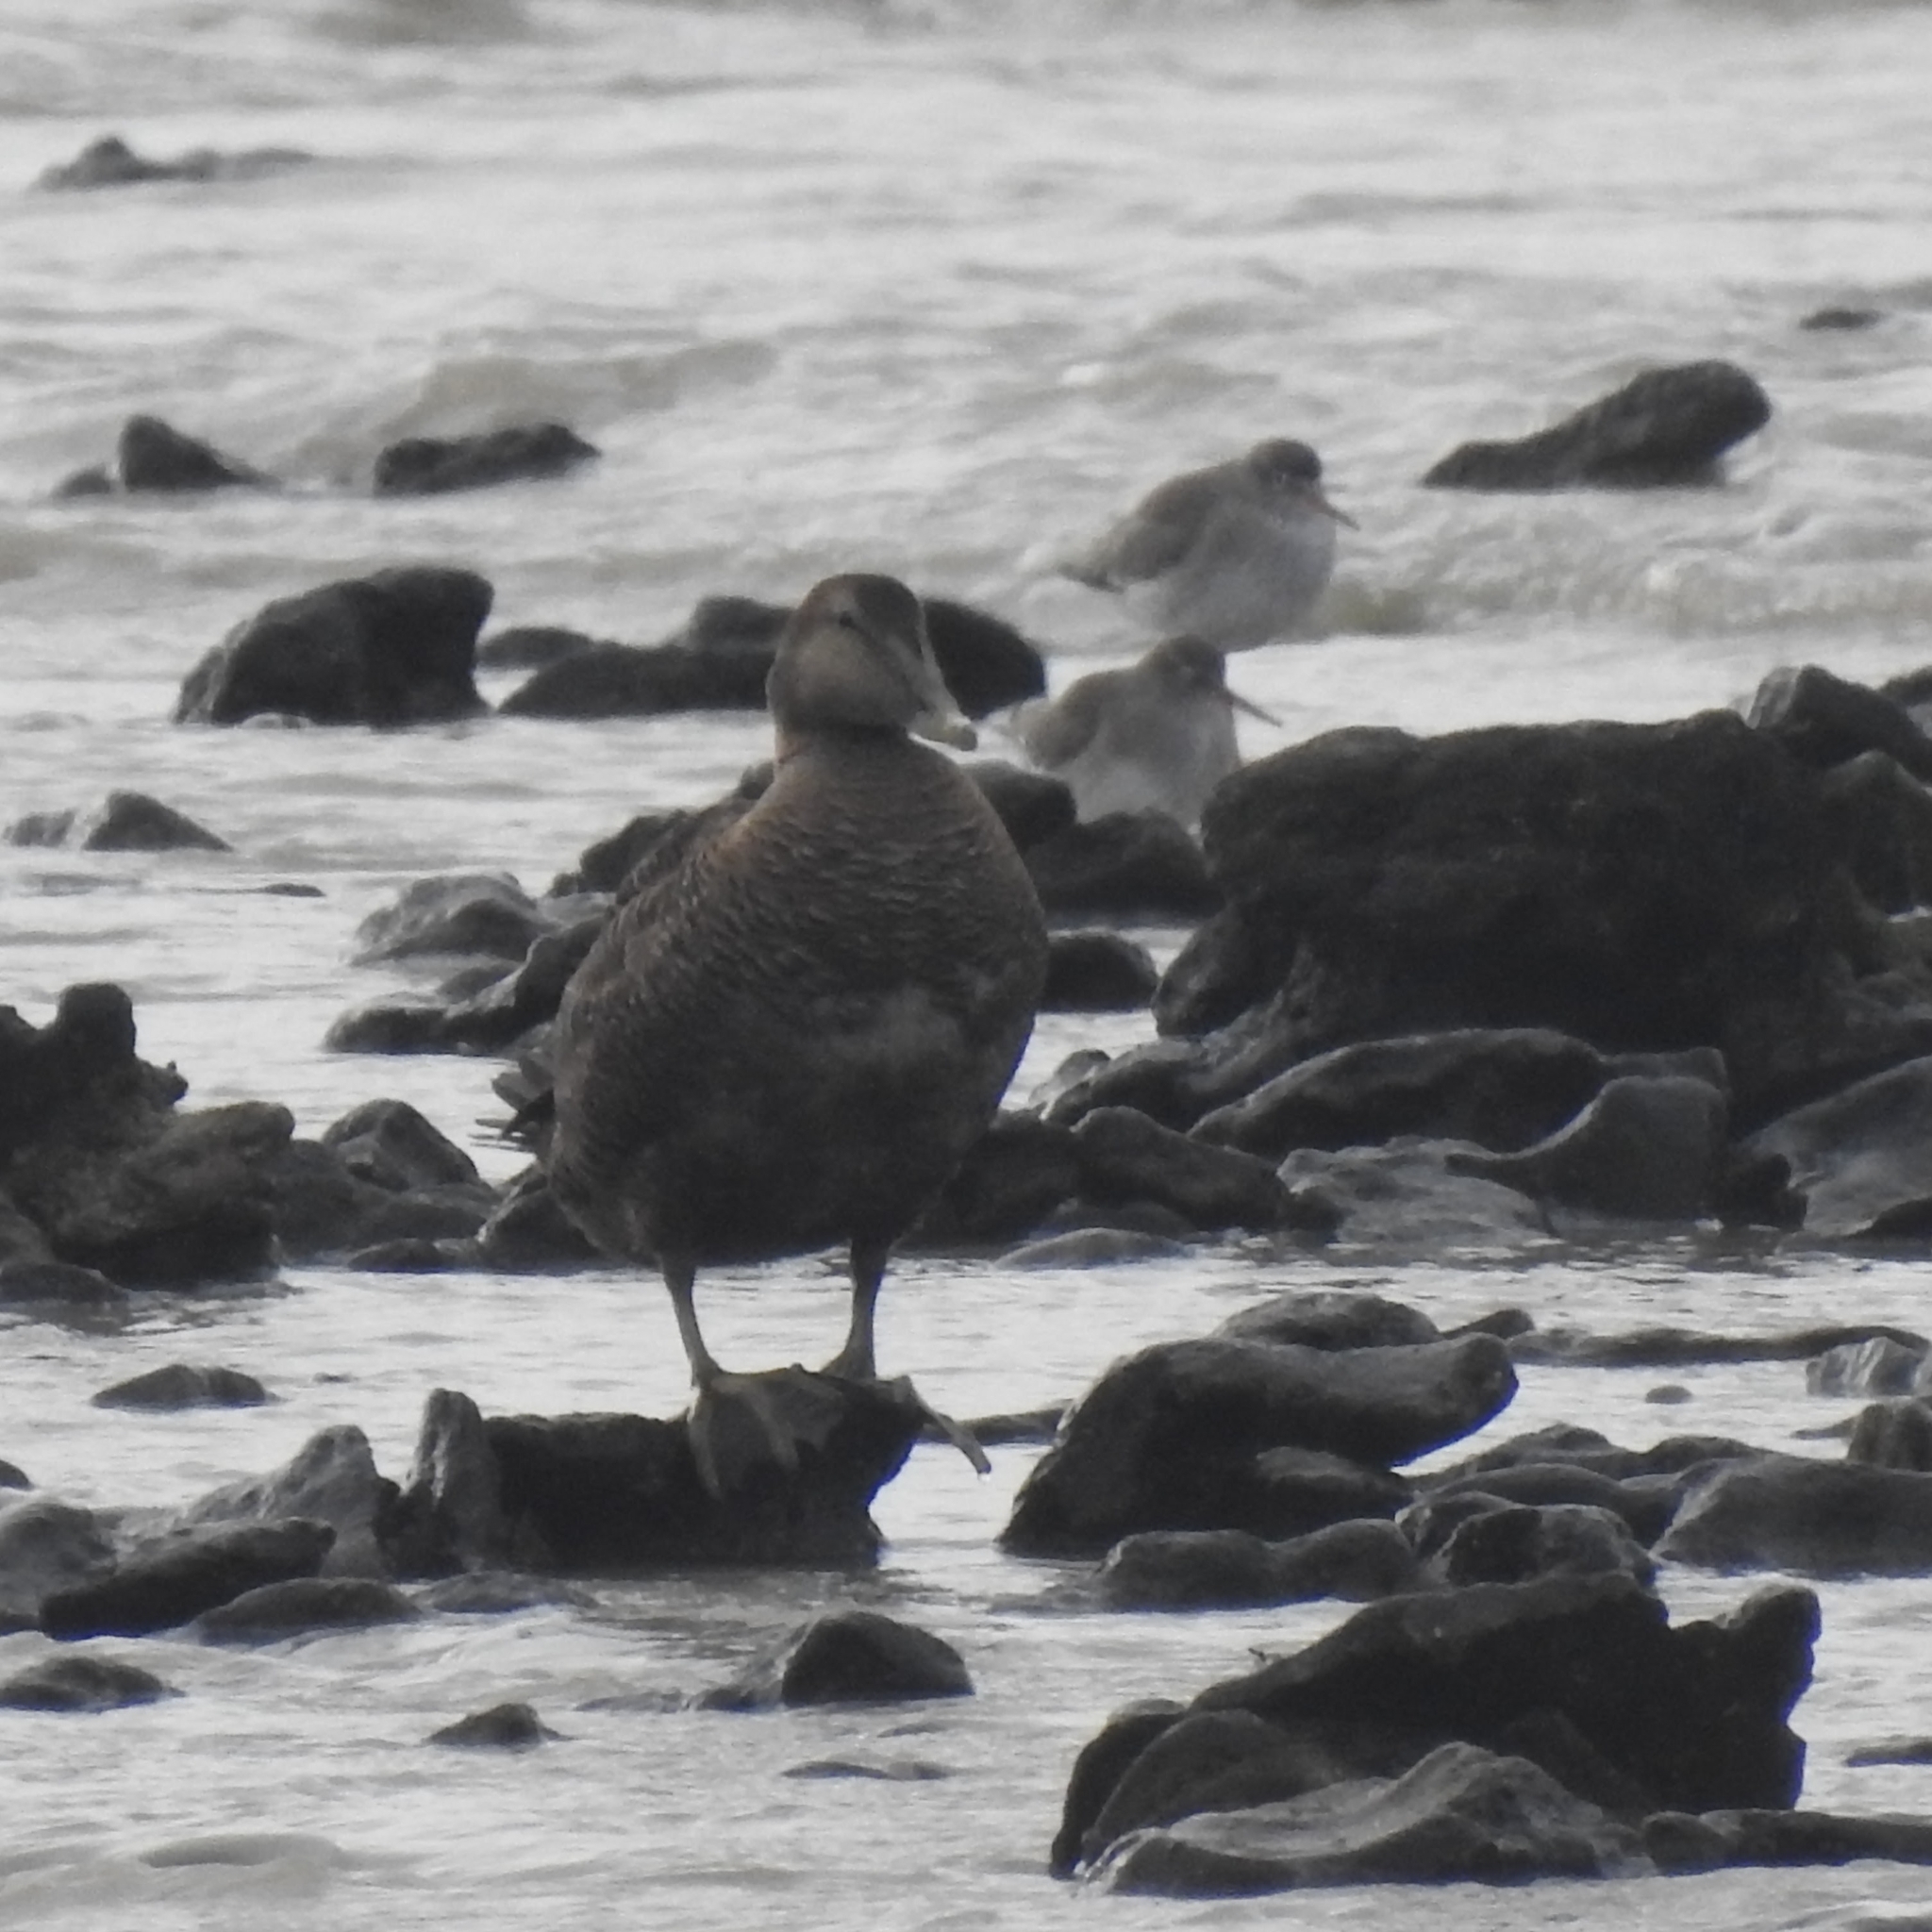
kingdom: Animalia
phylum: Chordata
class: Aves
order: Anseriformes
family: Anatidae
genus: Somateria
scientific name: Somateria mollissima
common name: Common eider
